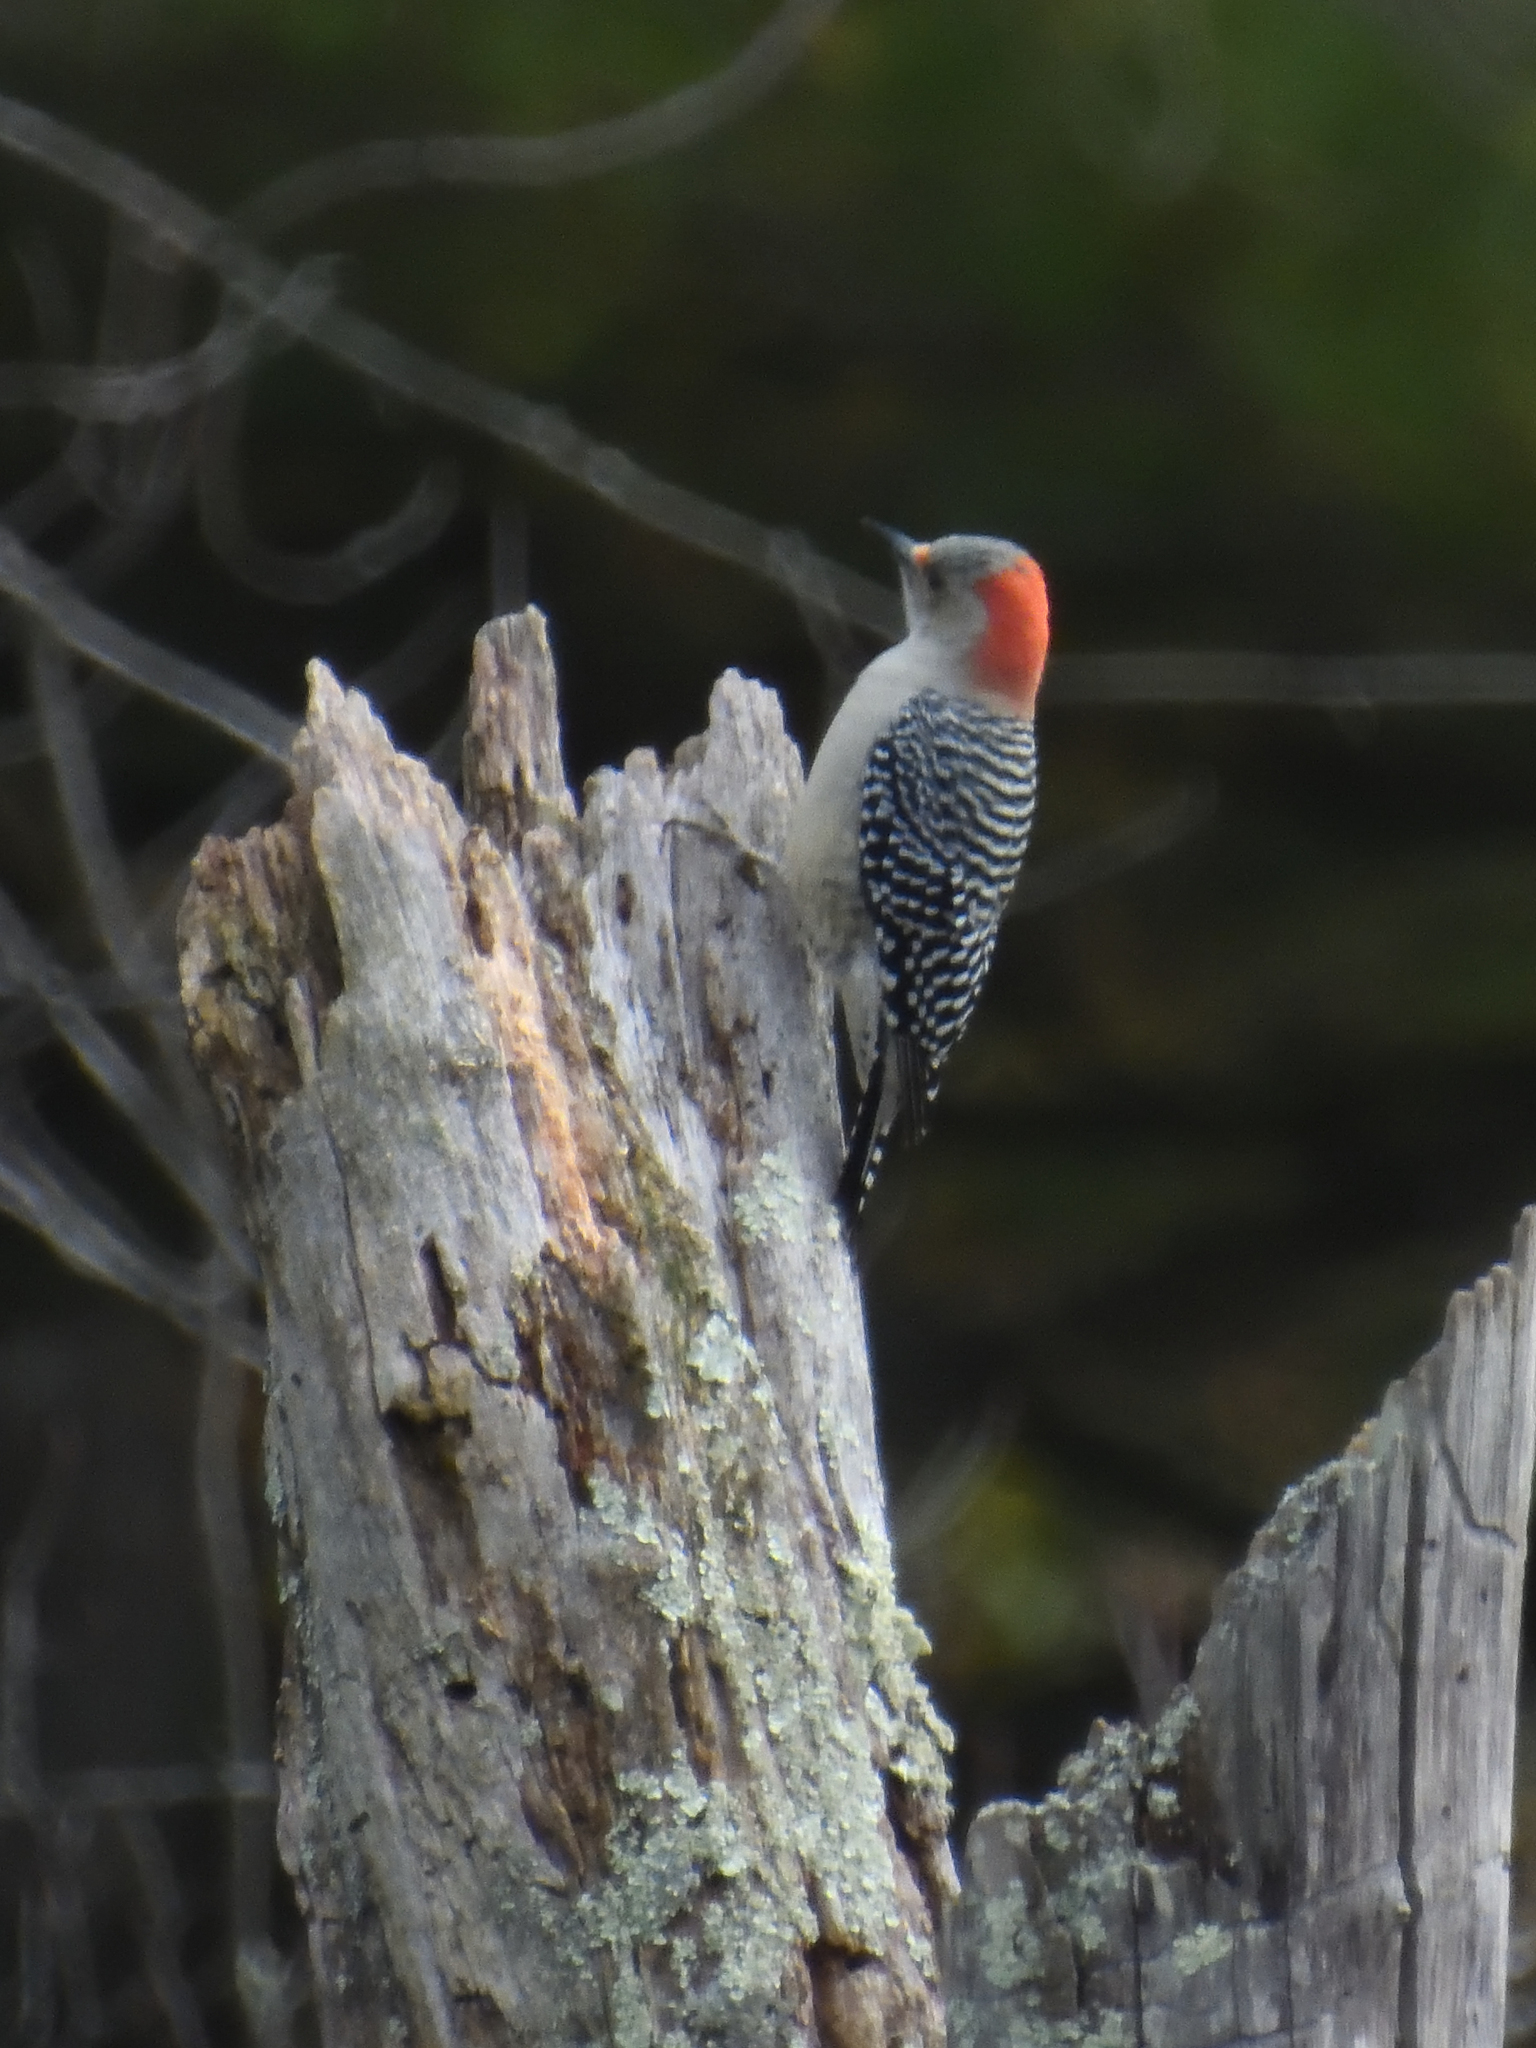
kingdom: Animalia
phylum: Chordata
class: Aves
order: Piciformes
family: Picidae
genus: Melanerpes
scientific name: Melanerpes carolinus
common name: Red-bellied woodpecker
